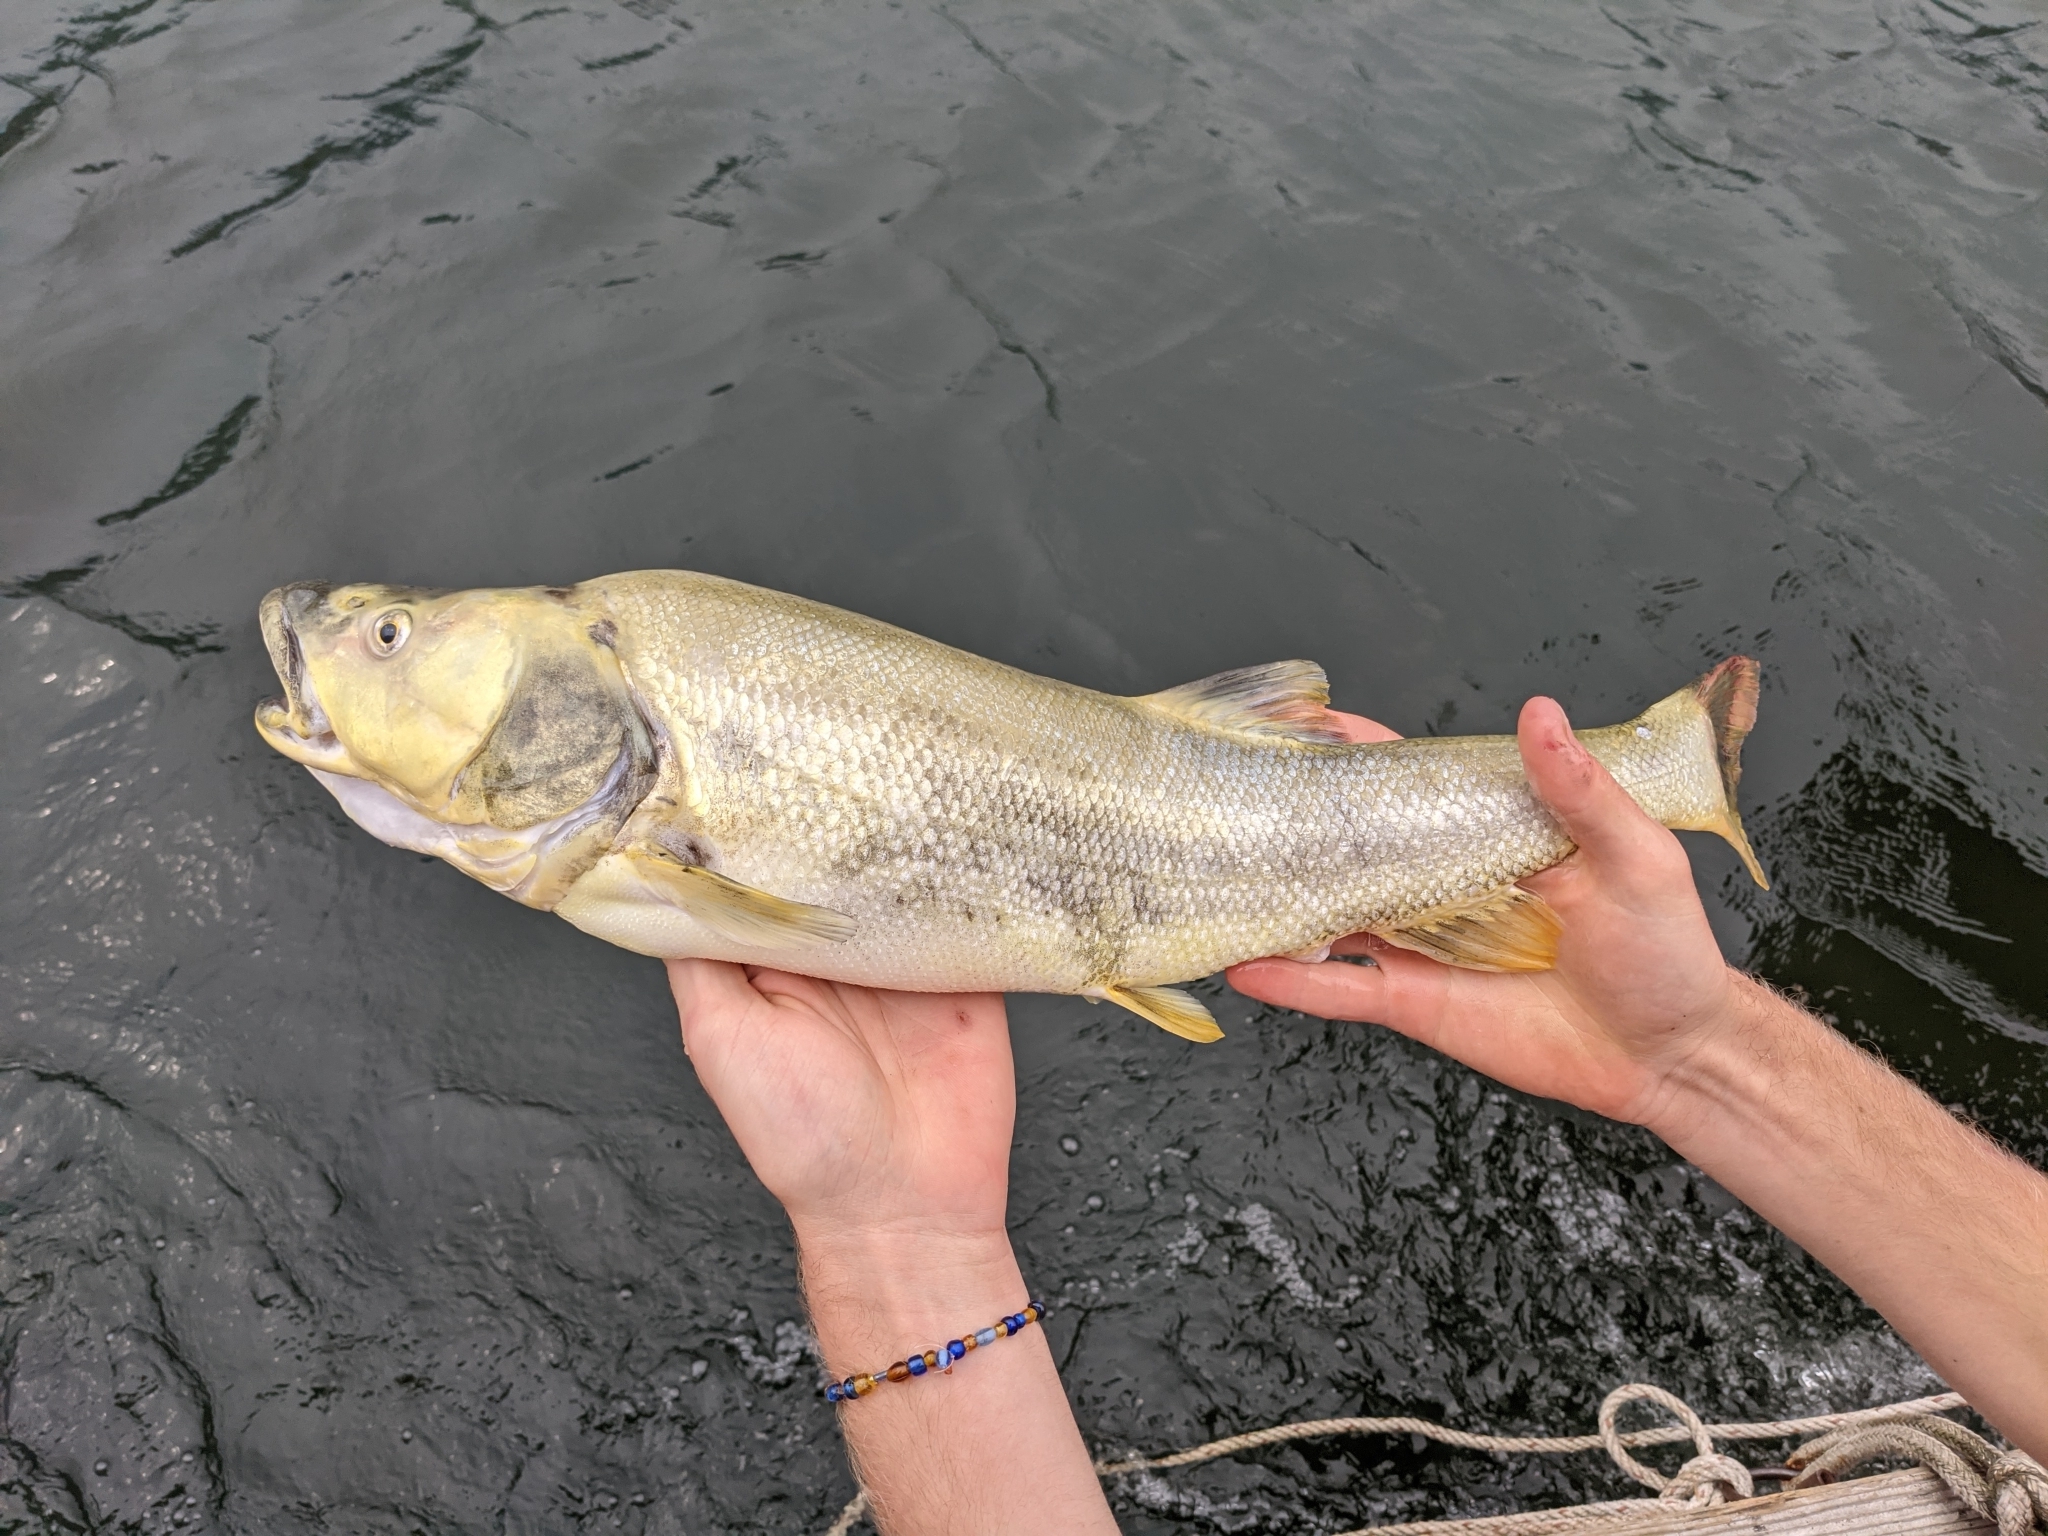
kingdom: Animalia
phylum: Chordata
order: Cypriniformes
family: Cyprinidae
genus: Ptychocheilus
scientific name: Ptychocheilus oregonensis
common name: Northern pikeminnow
